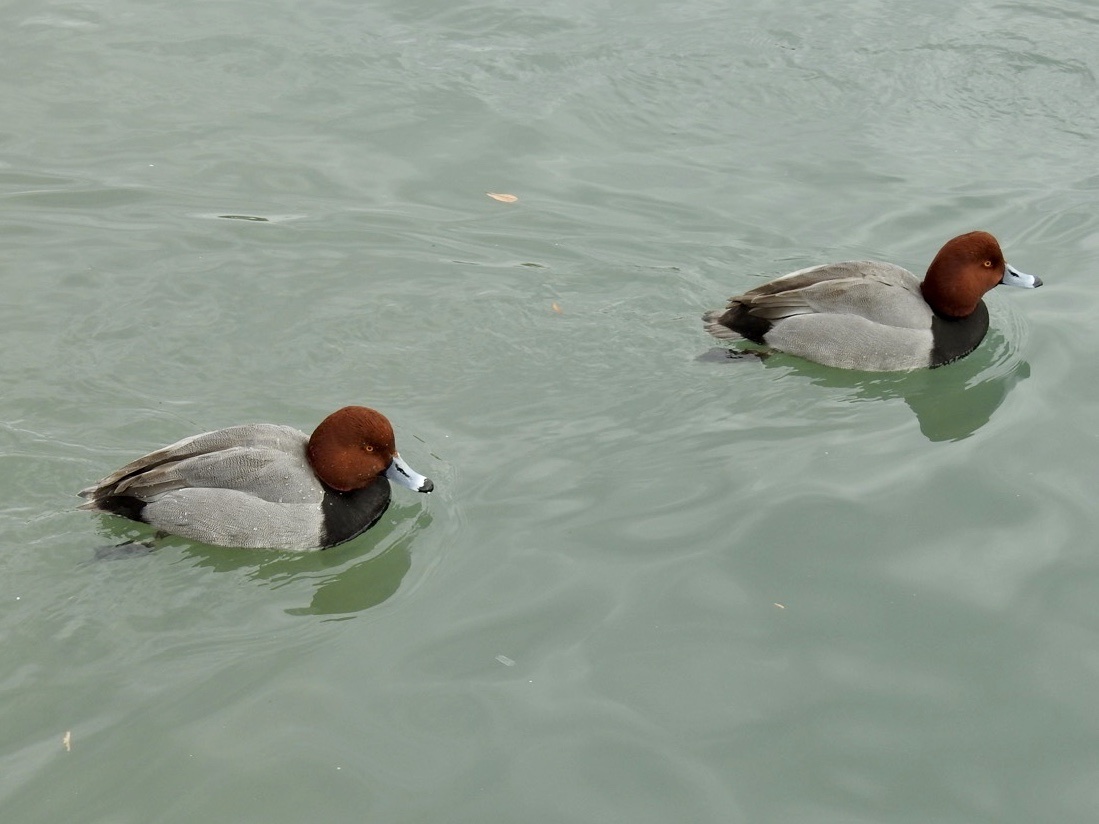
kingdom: Animalia
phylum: Chordata
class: Aves
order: Anseriformes
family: Anatidae
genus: Aythya
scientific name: Aythya americana
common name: Redhead
